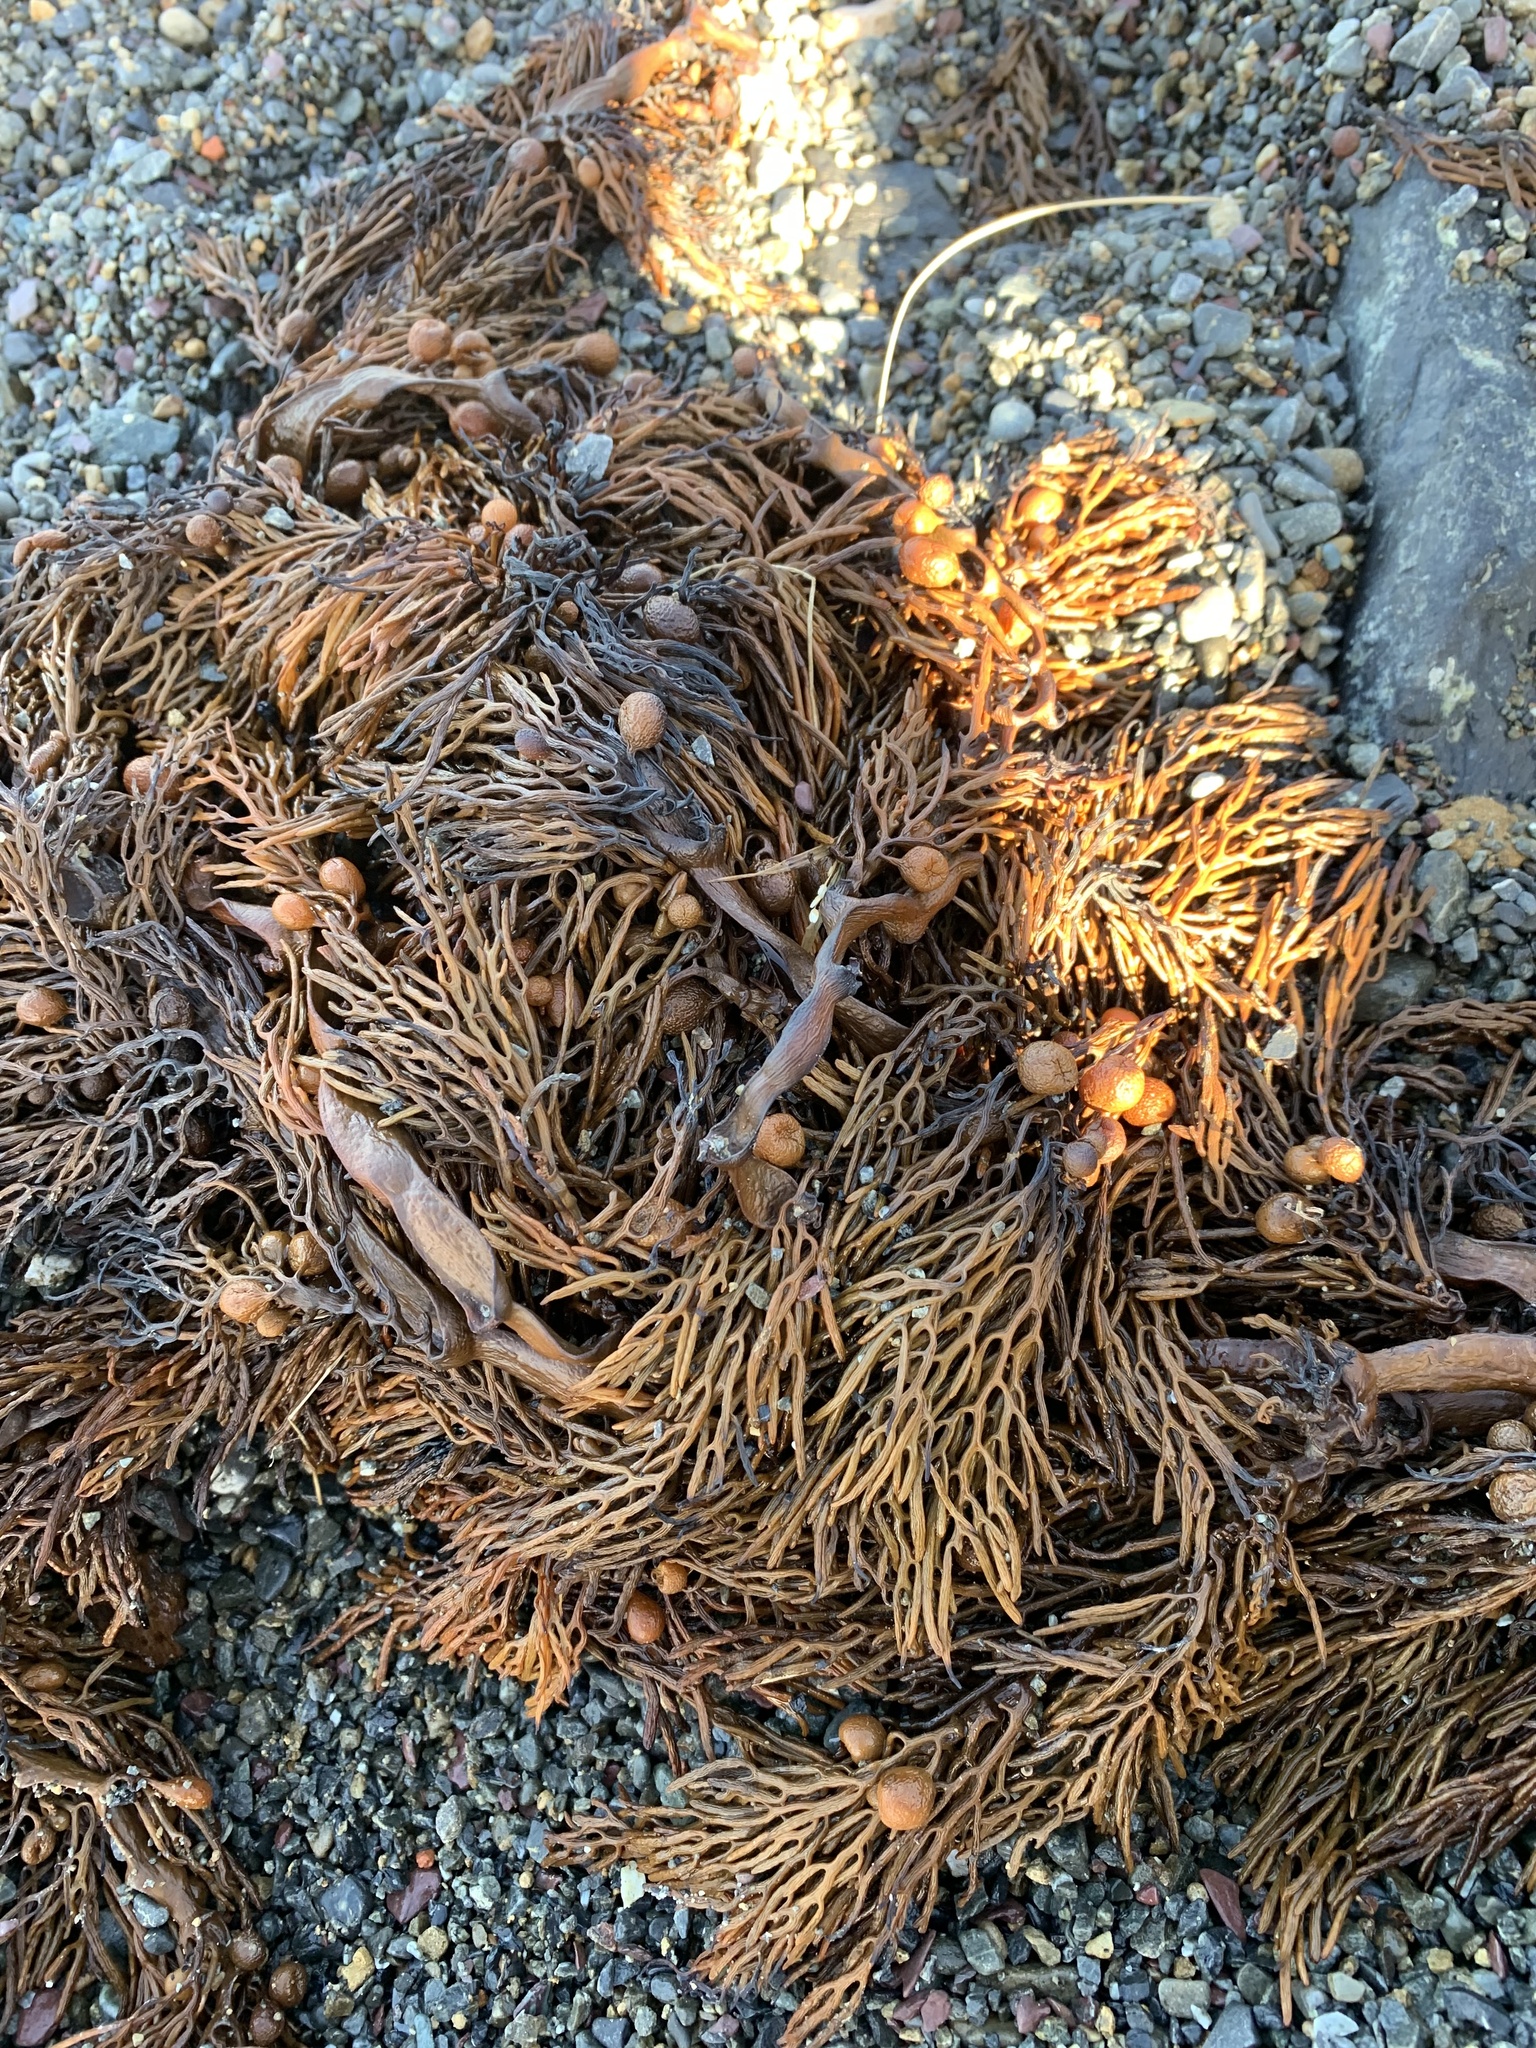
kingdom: Chromista
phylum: Ochrophyta
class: Phaeophyceae
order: Fucales
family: Sargassaceae
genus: Cystophora
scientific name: Cystophora scalaris
